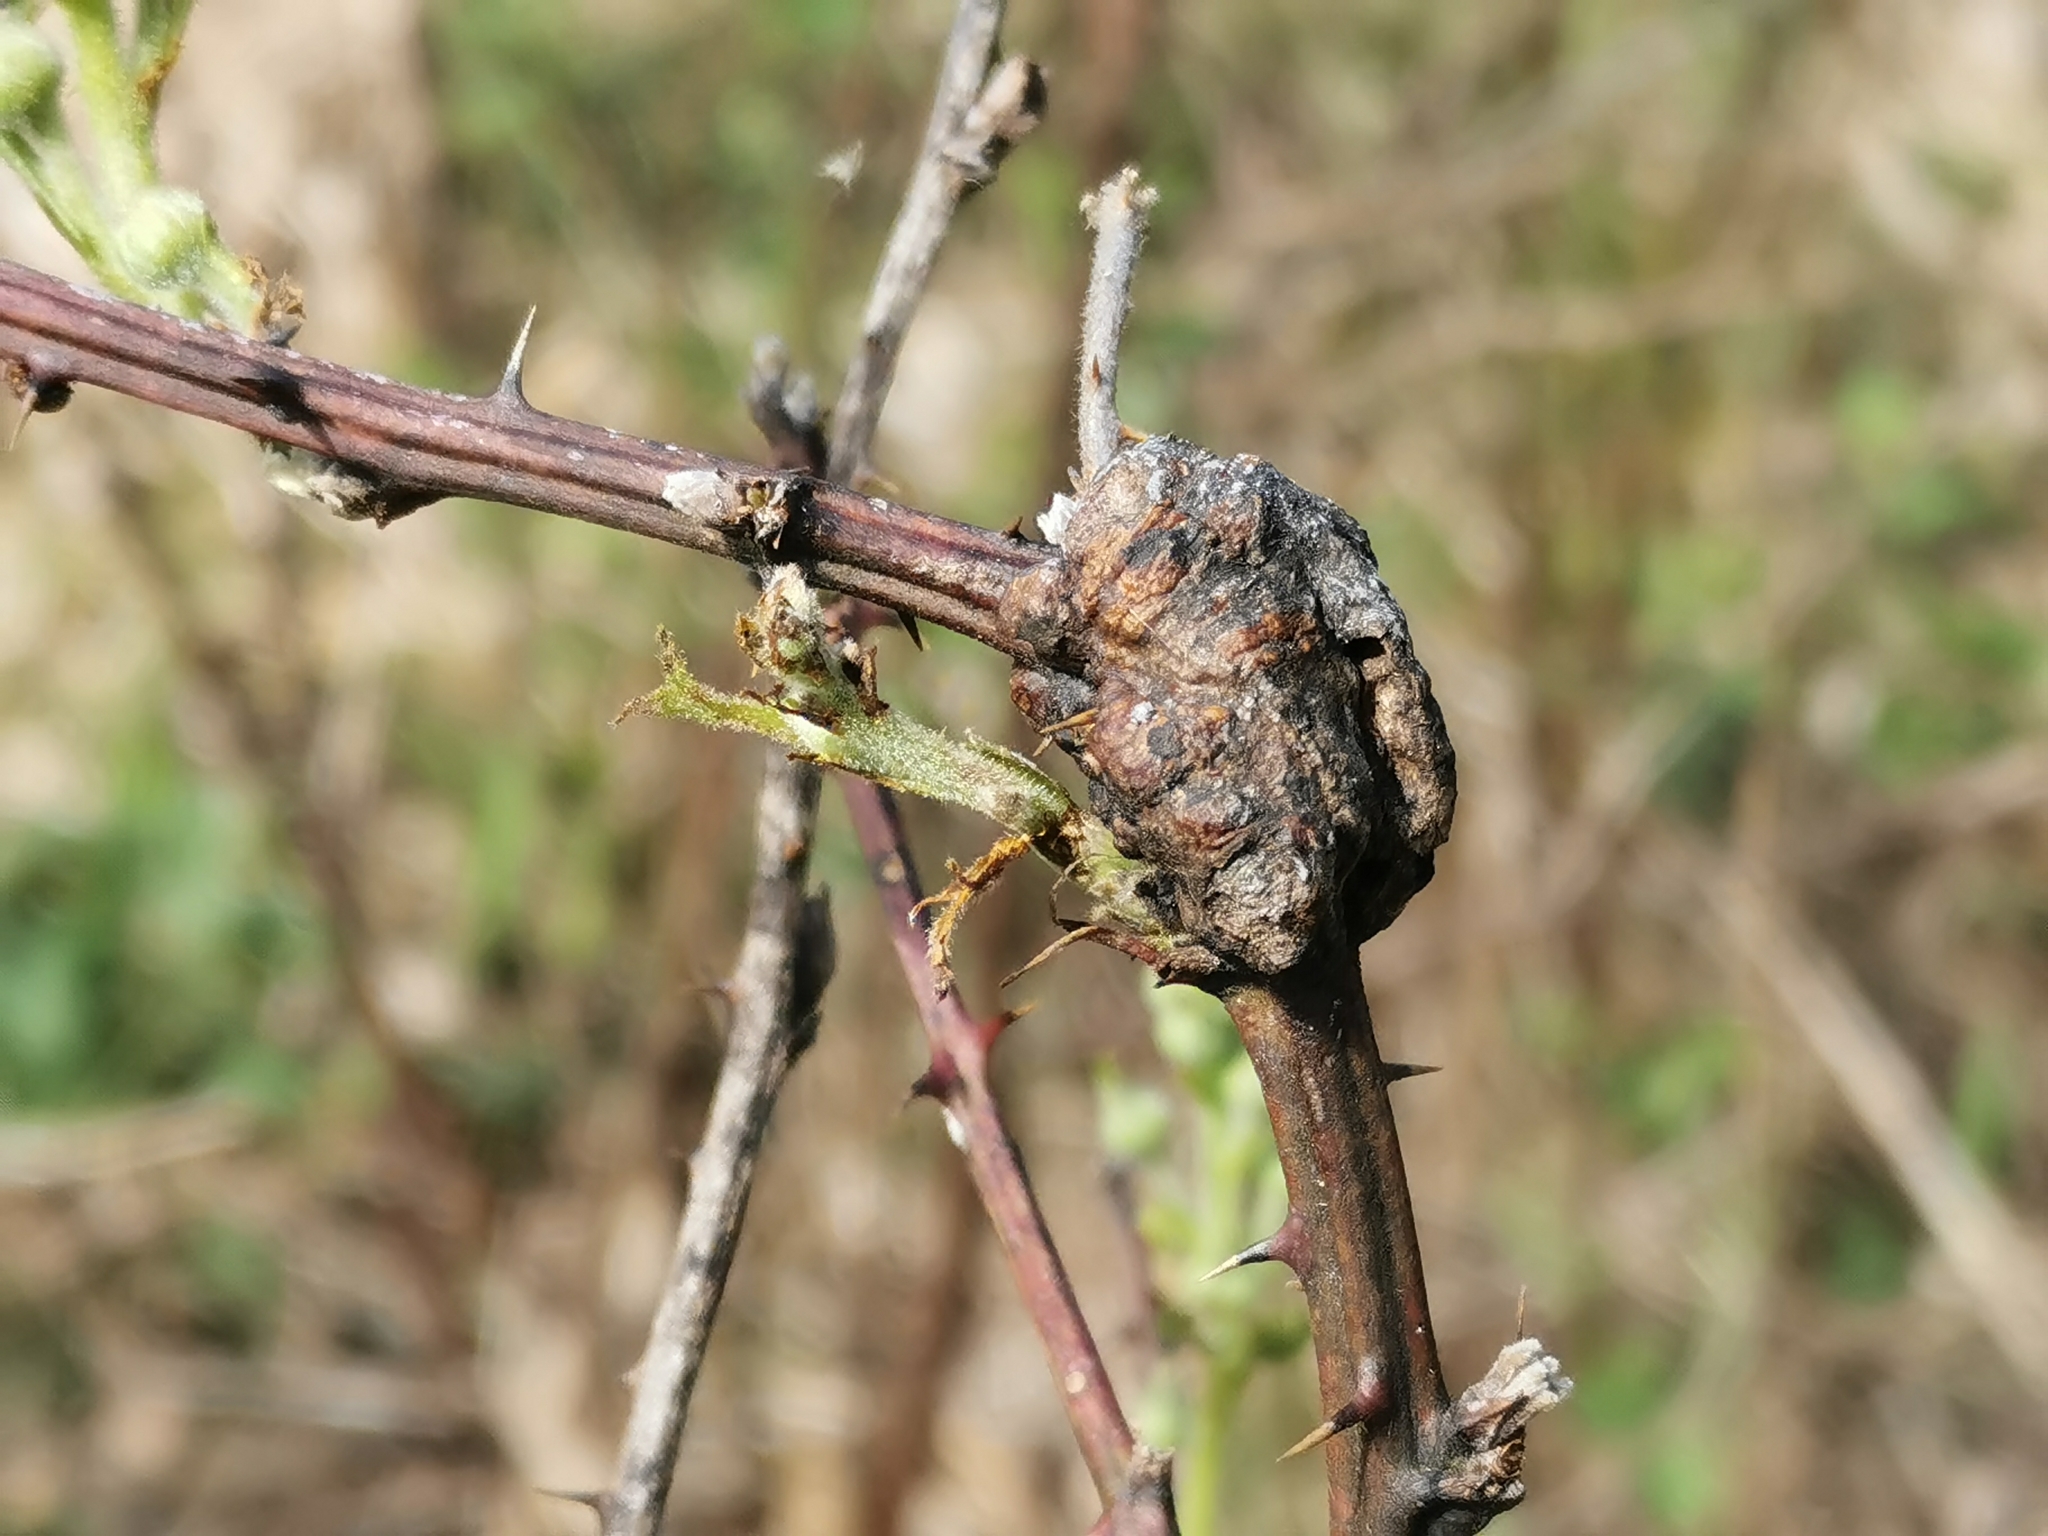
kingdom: Animalia
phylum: Arthropoda
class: Insecta
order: Hymenoptera
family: Cynipidae
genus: Diastrophus
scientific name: Diastrophus
